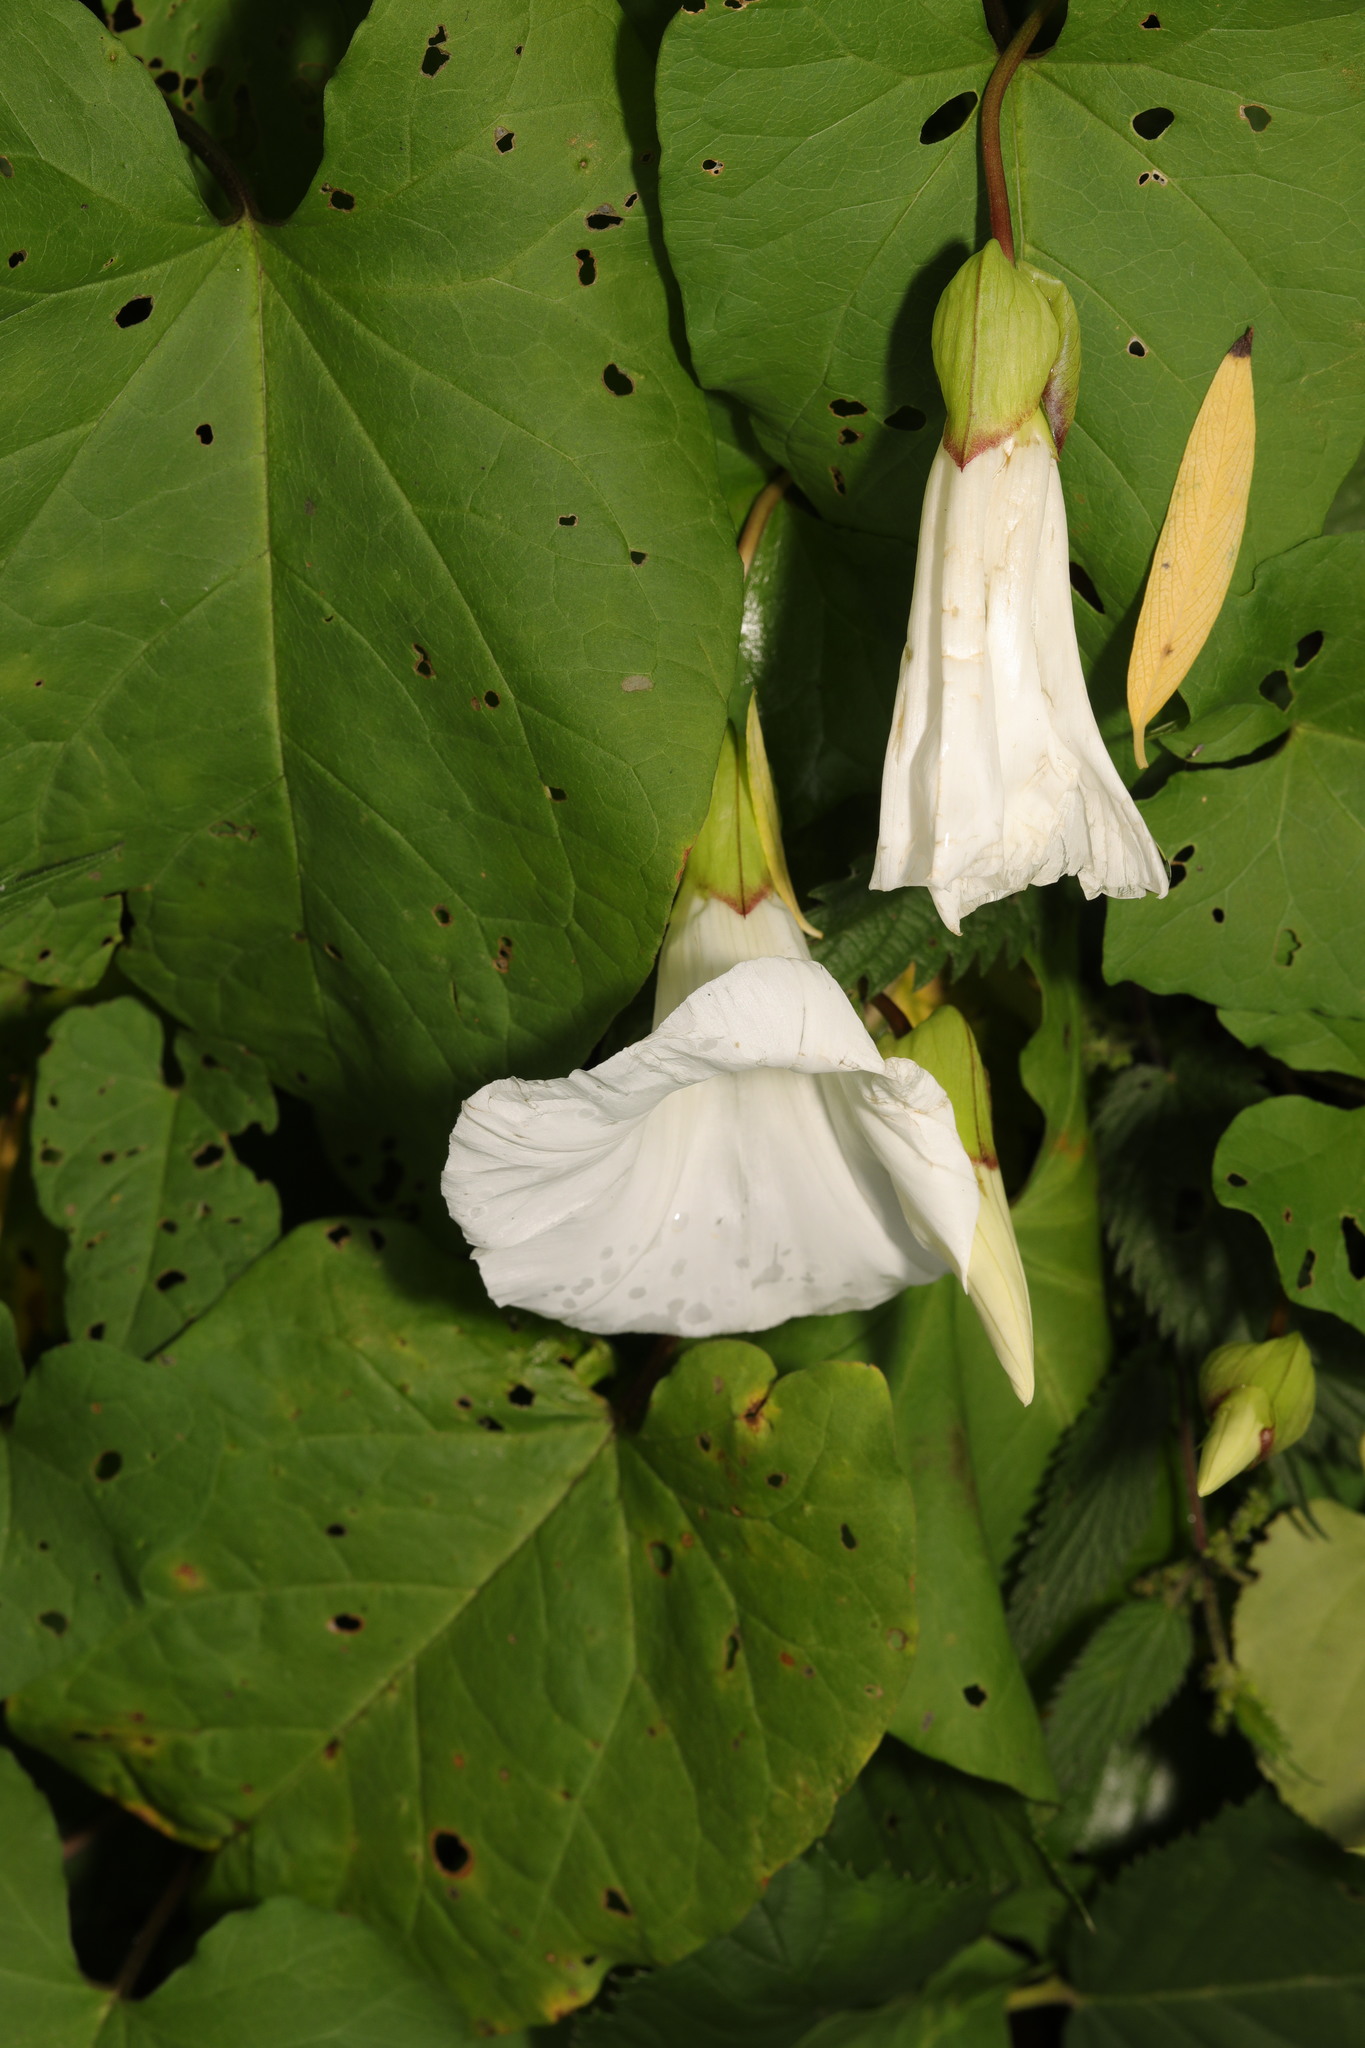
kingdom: Plantae
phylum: Tracheophyta
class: Magnoliopsida
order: Solanales
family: Convolvulaceae
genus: Calystegia
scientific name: Calystegia silvatica
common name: Large bindweed
